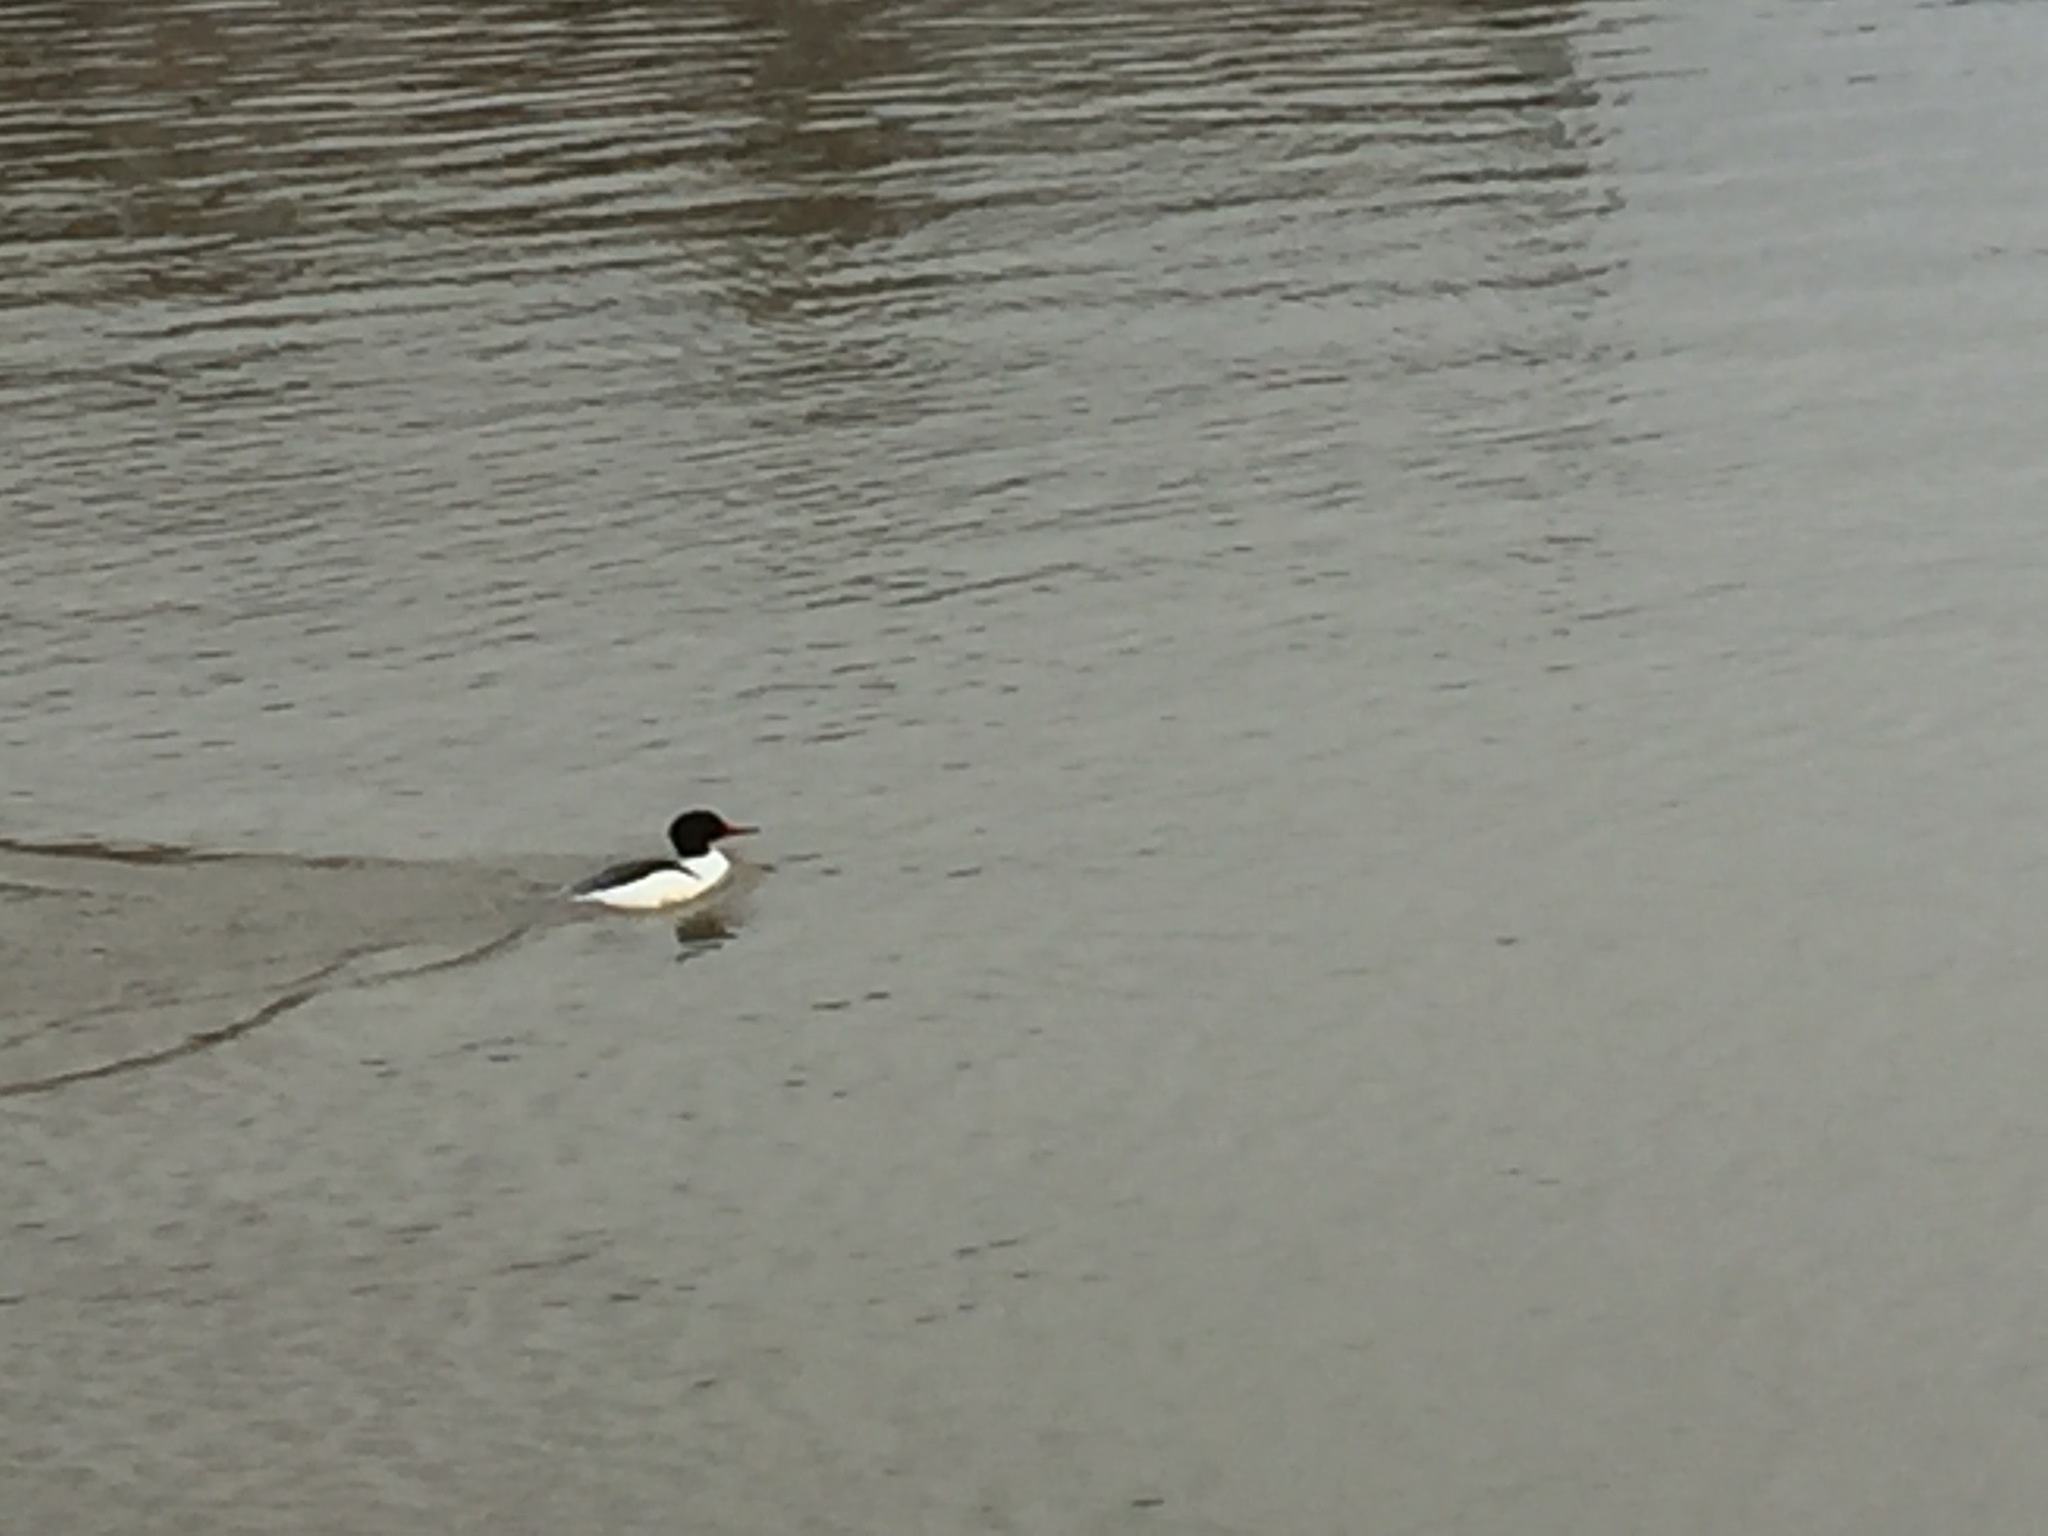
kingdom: Animalia
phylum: Chordata
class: Aves
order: Anseriformes
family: Anatidae
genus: Mergus
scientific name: Mergus merganser
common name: Common merganser
